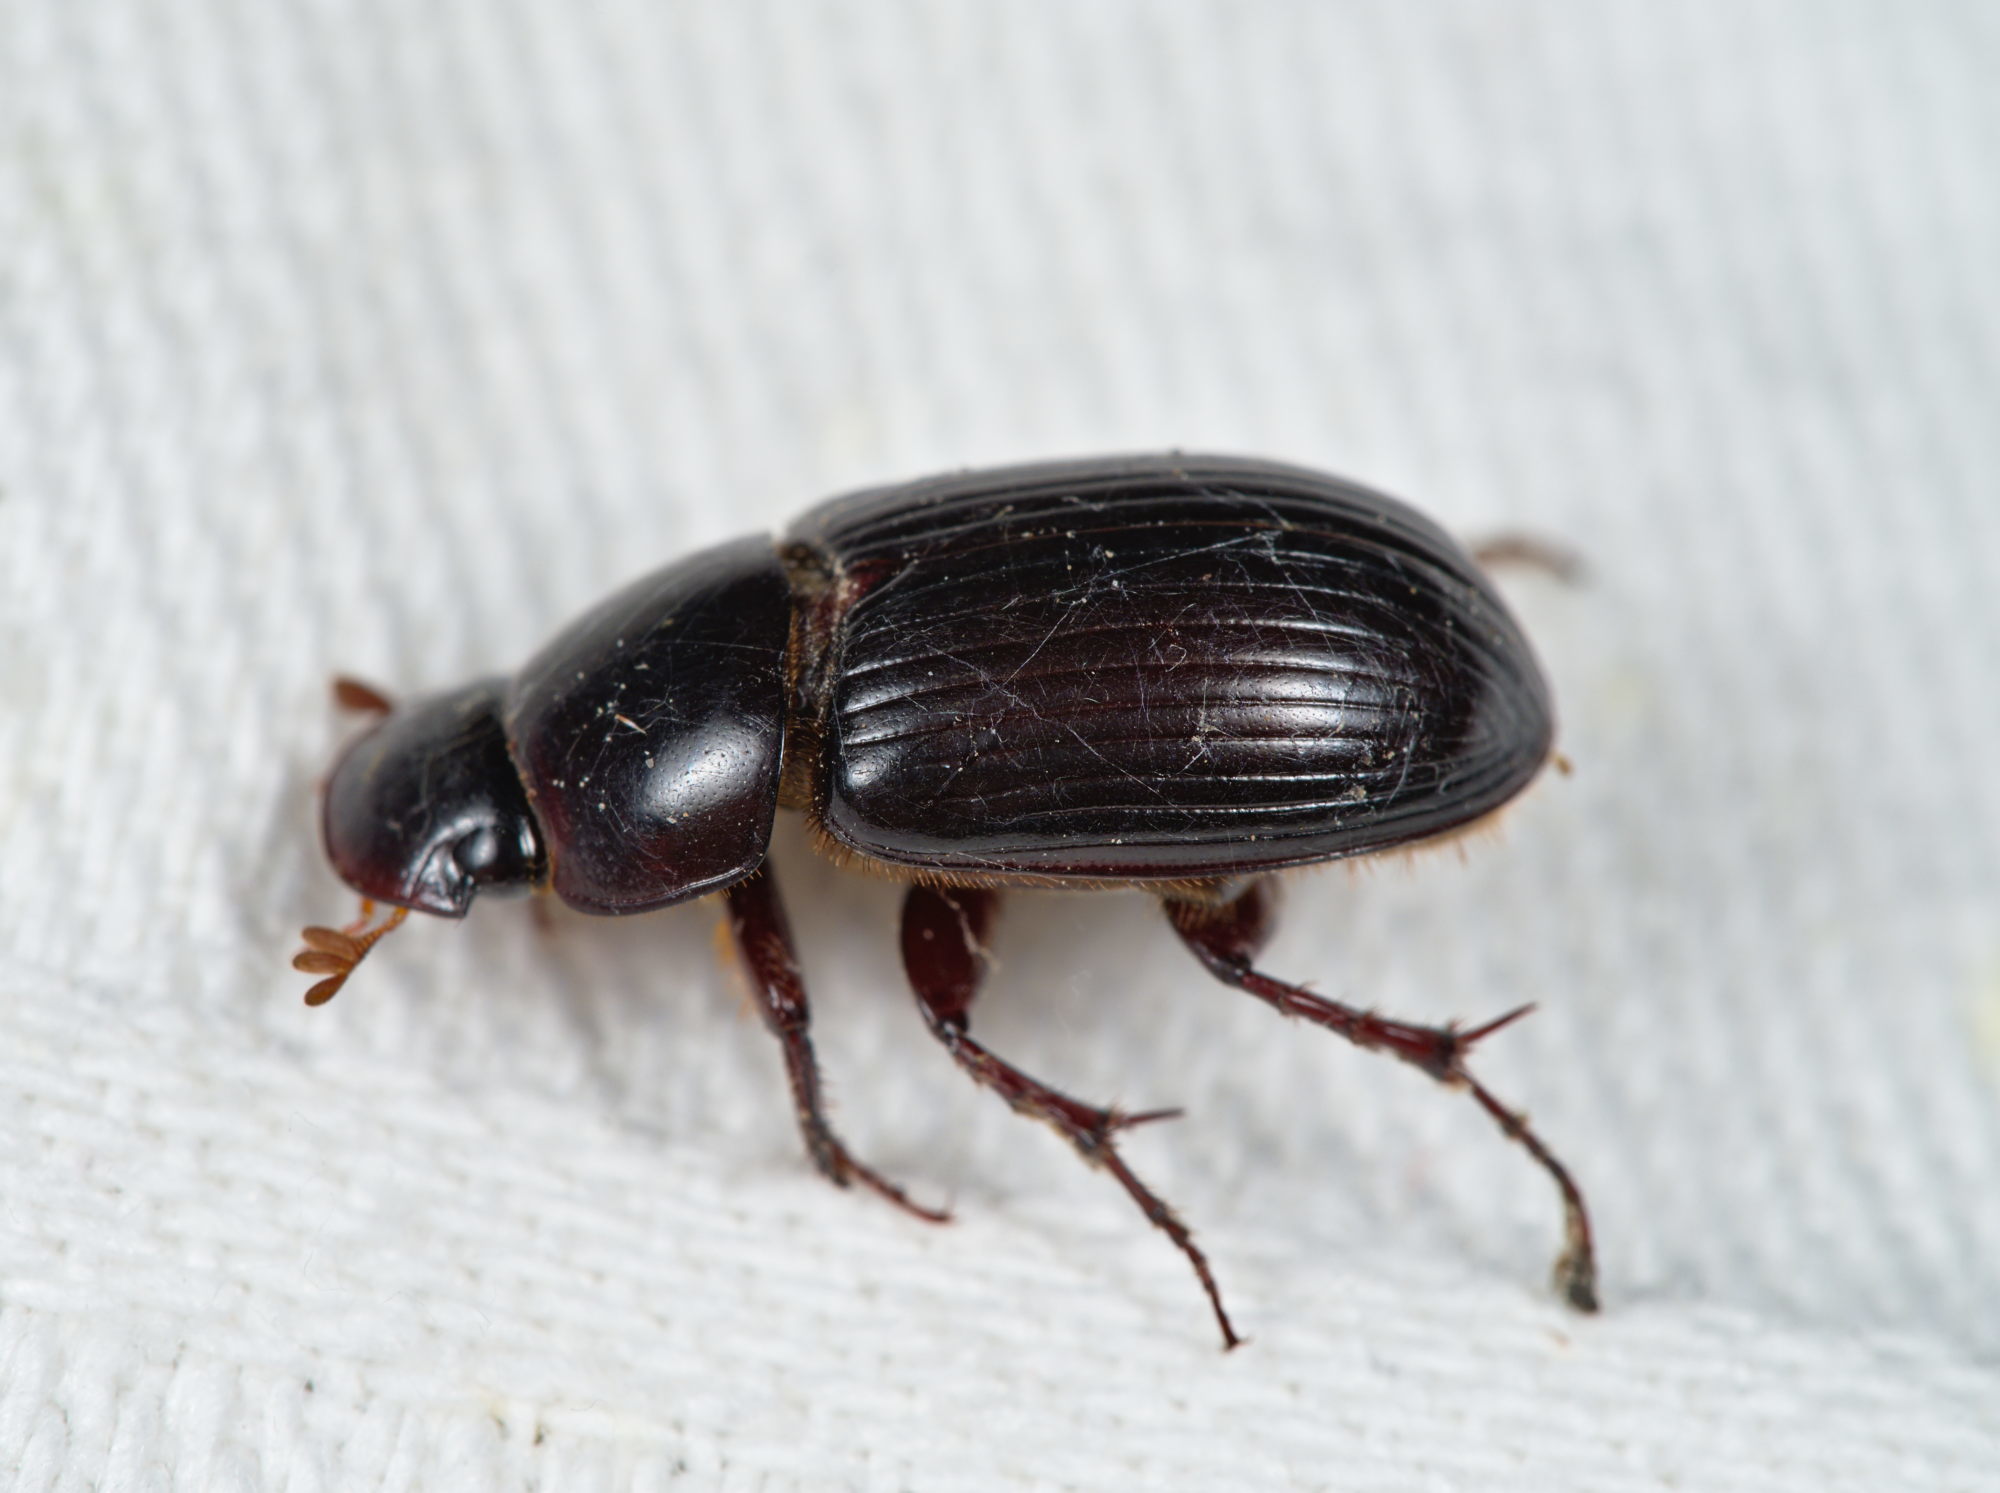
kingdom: Animalia
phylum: Arthropoda
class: Insecta
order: Coleoptera
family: Scarabaeidae
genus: Acrossus
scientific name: Acrossus rufipes
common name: Night-flying dung beetle
